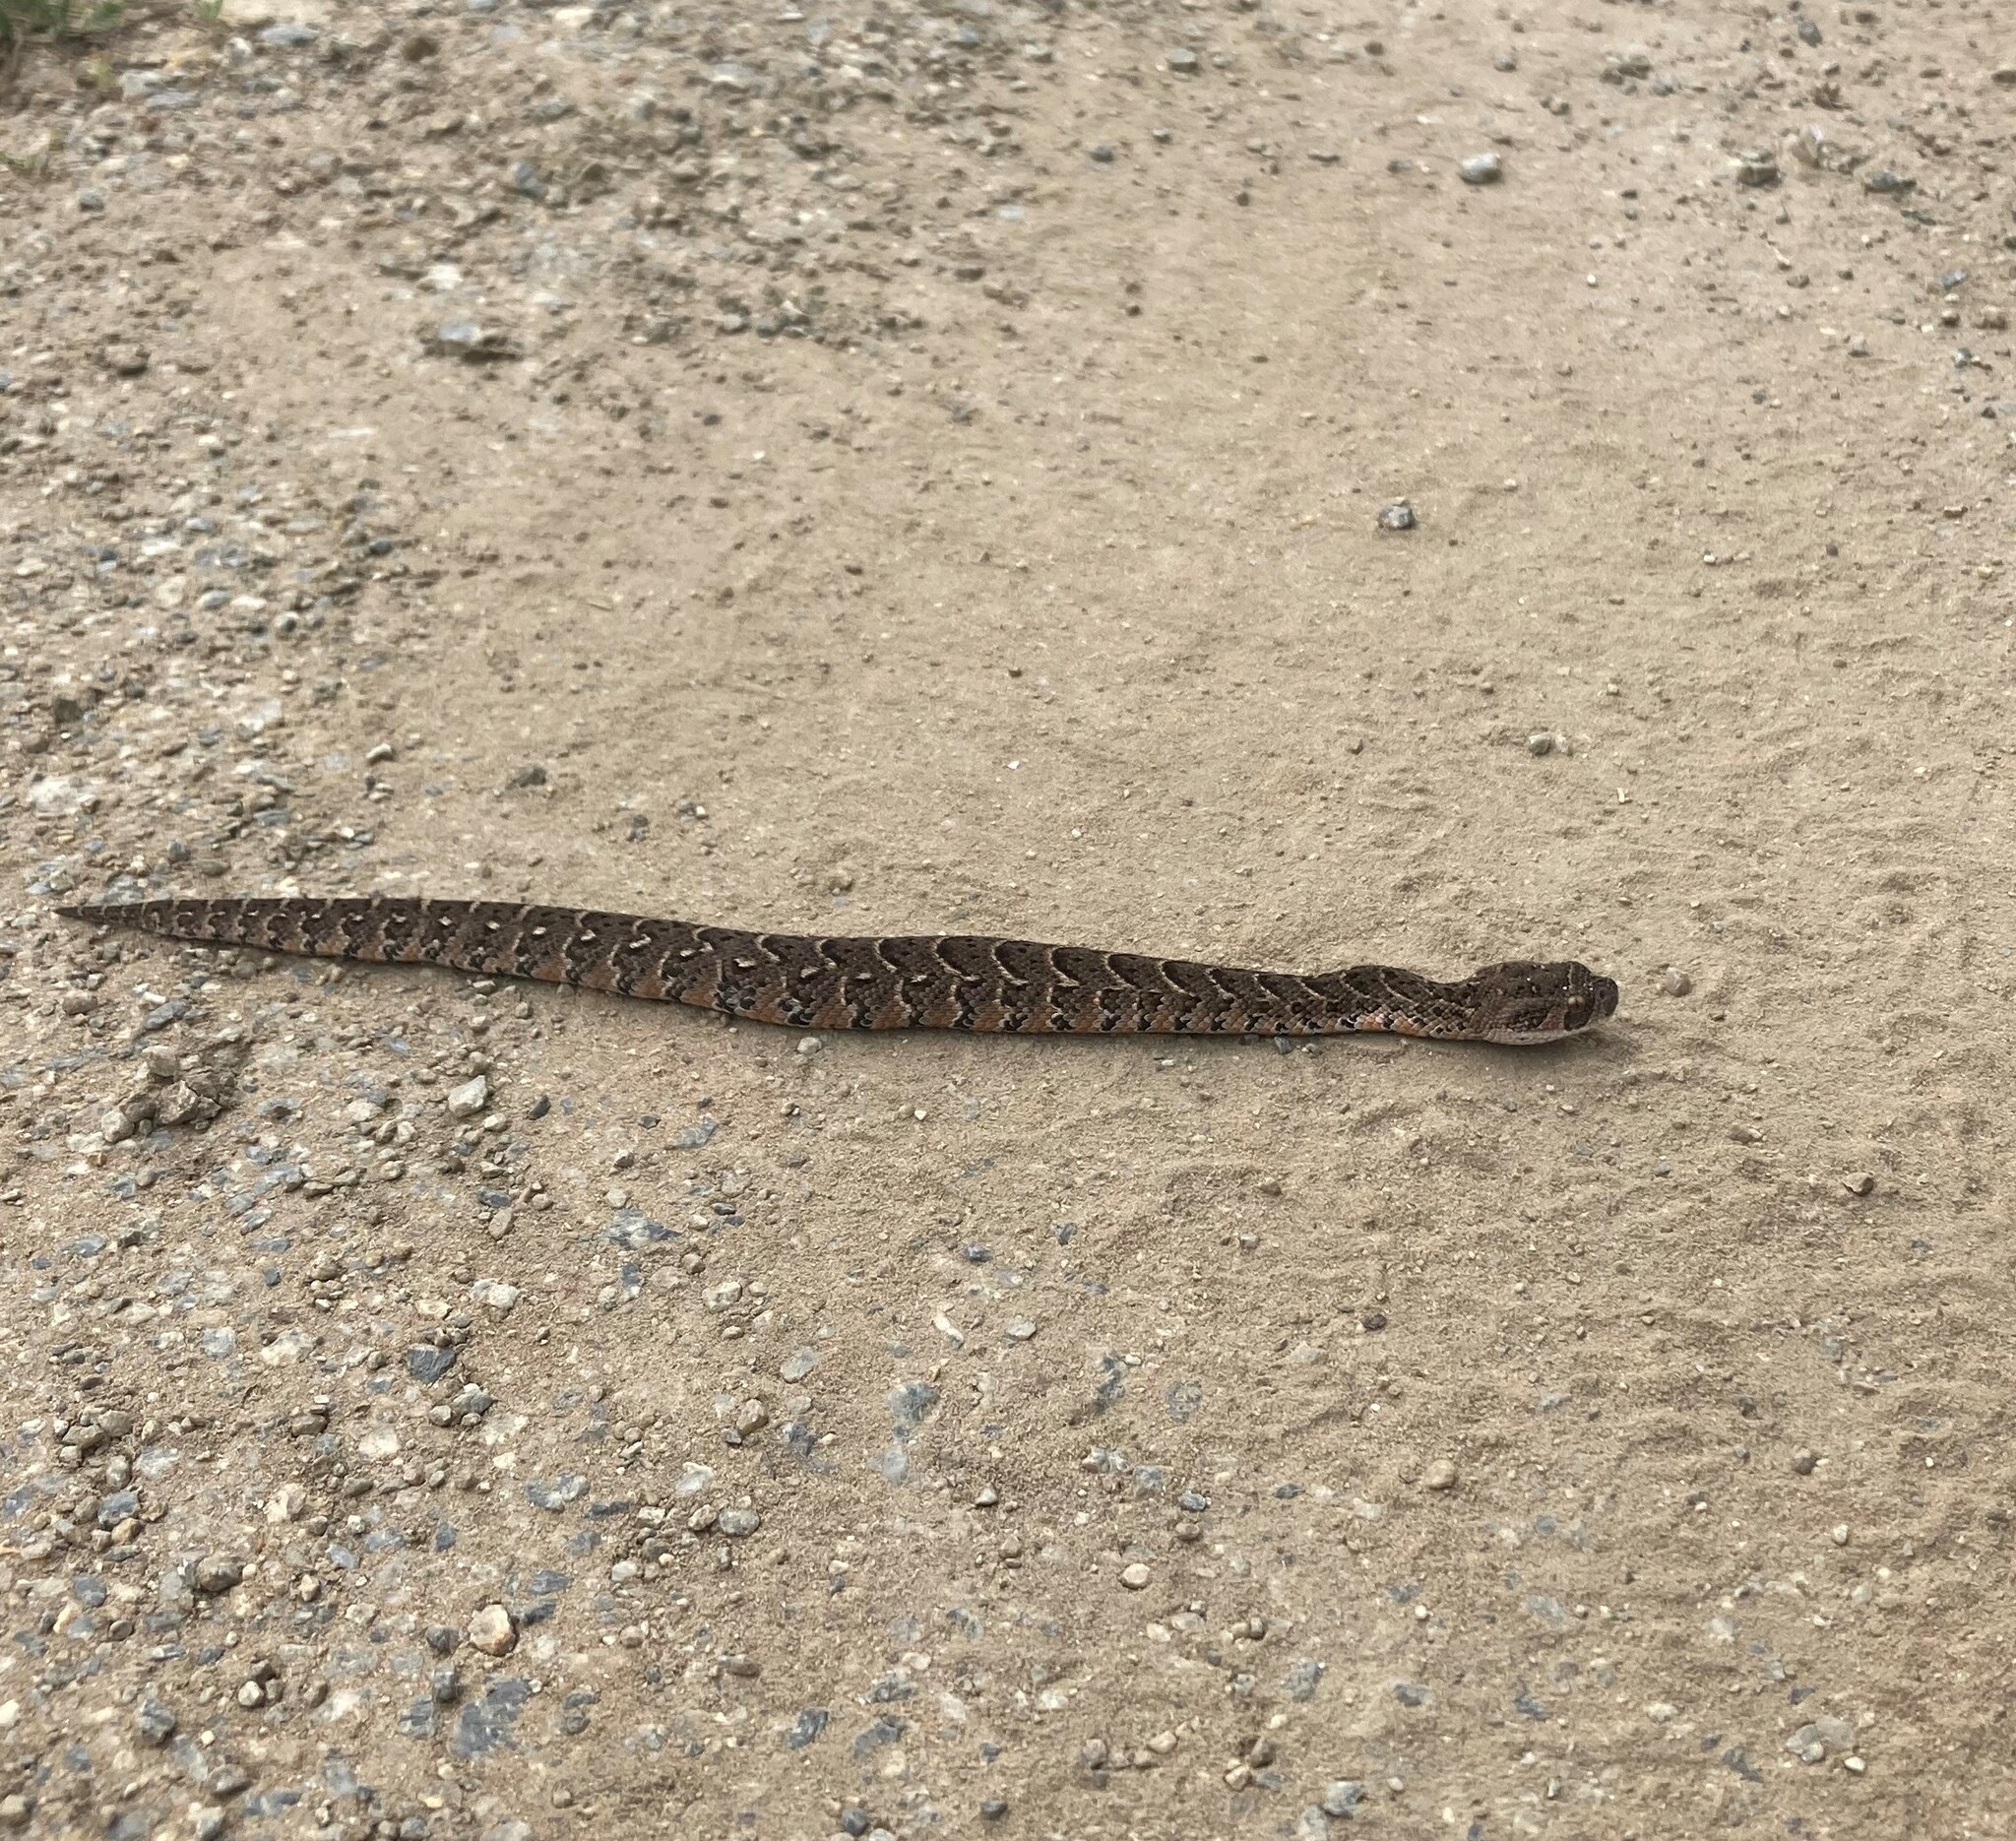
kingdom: Animalia
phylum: Chordata
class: Squamata
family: Viperidae
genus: Bitis
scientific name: Bitis arietans
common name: Puff adder
